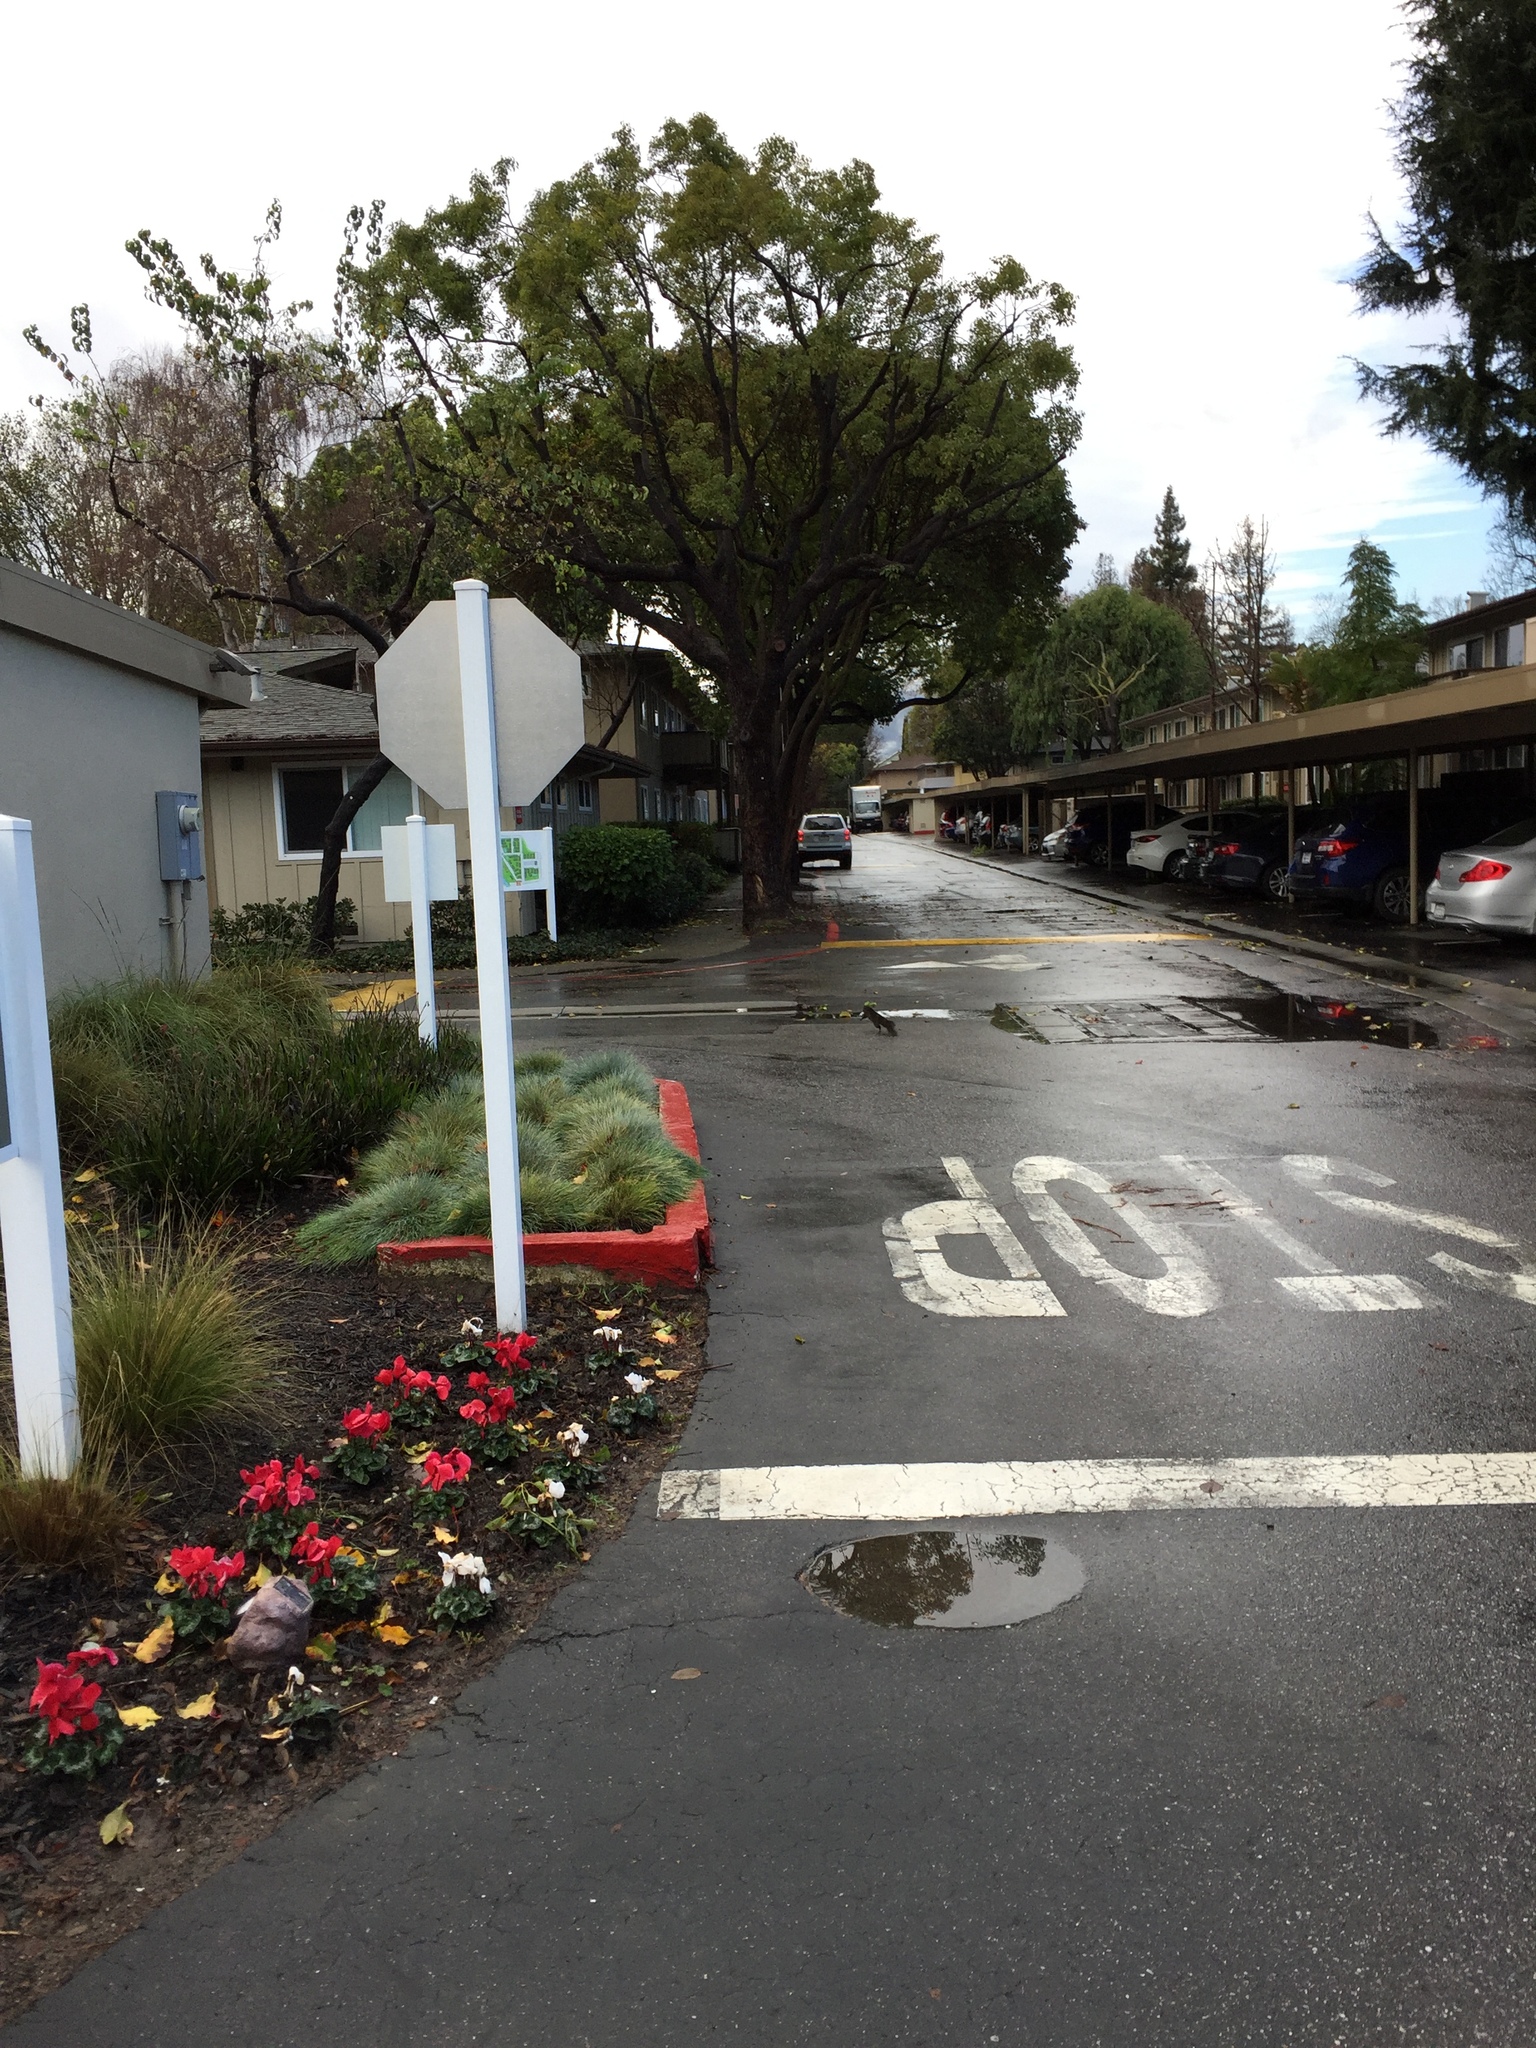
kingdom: Animalia
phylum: Chordata
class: Mammalia
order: Rodentia
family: Sciuridae
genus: Sciurus
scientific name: Sciurus carolinensis
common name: Eastern gray squirrel
